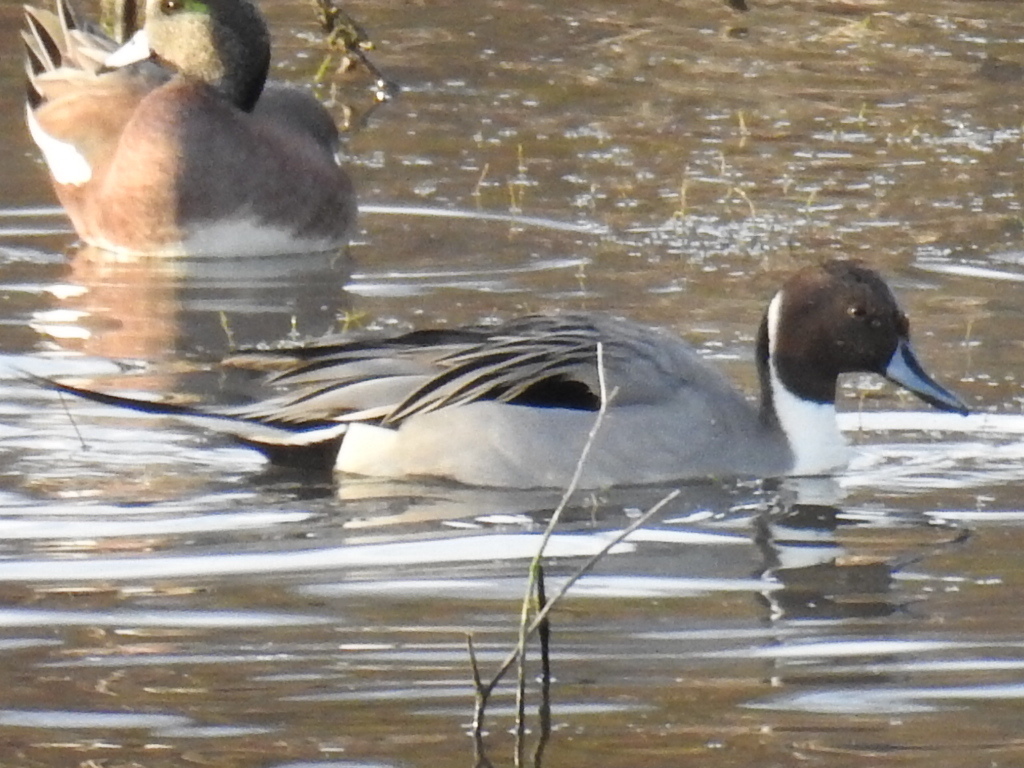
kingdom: Animalia
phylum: Chordata
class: Aves
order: Anseriformes
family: Anatidae
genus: Anas
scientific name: Anas acuta
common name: Northern pintail
